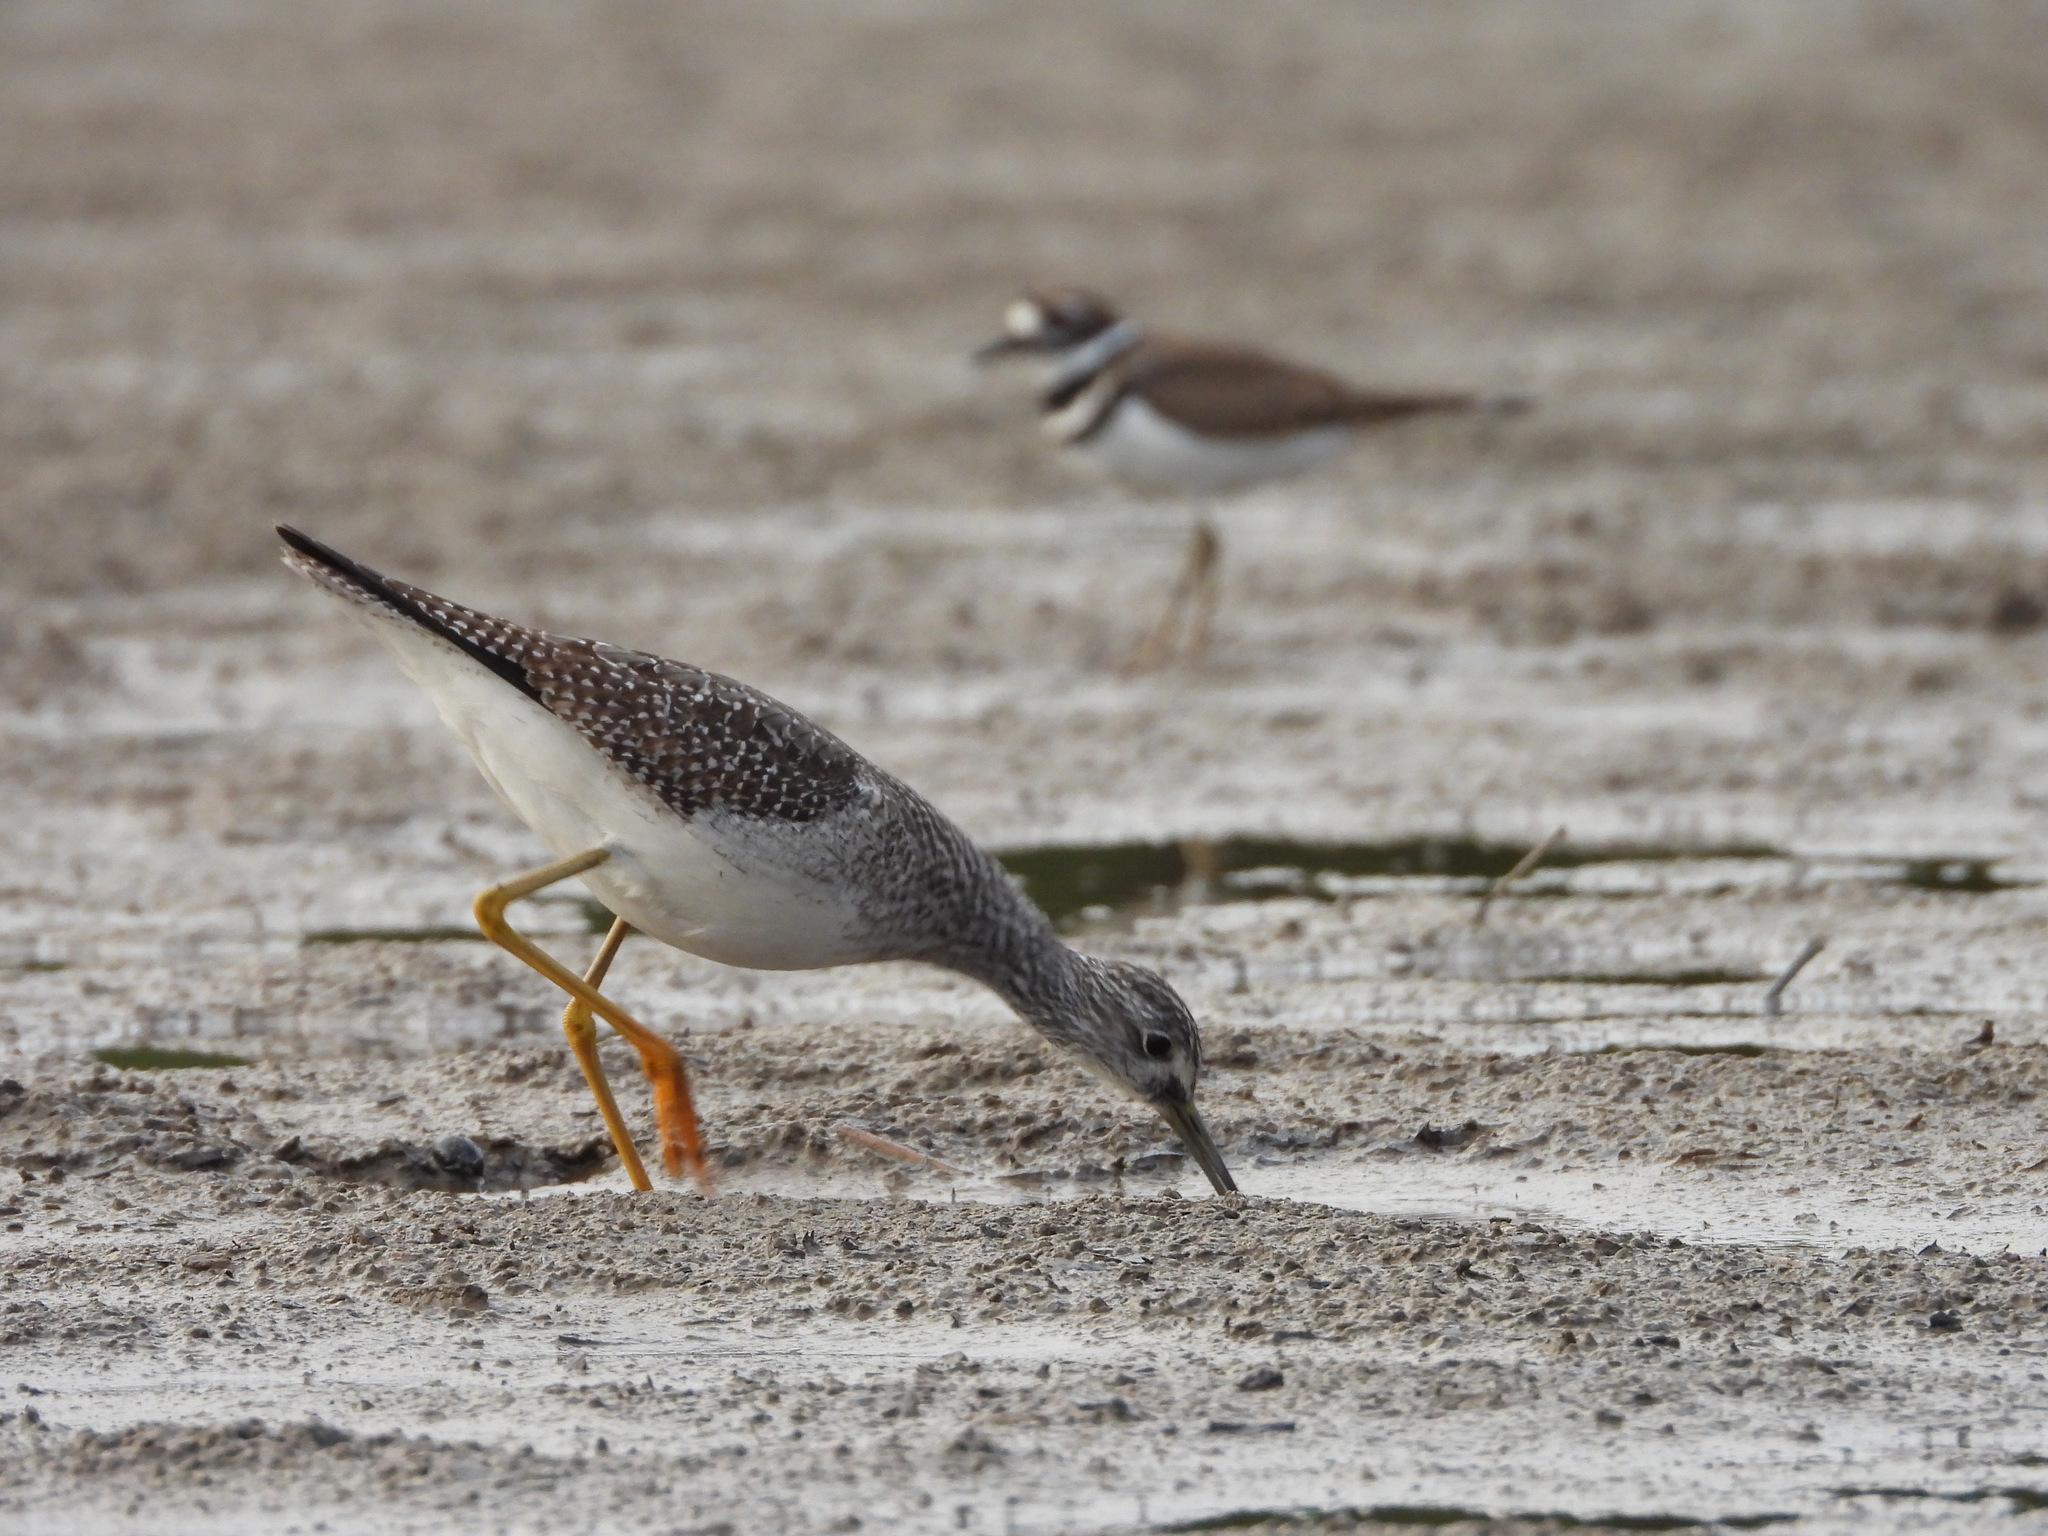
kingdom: Animalia
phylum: Chordata
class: Aves
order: Charadriiformes
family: Scolopacidae
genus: Tringa
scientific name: Tringa melanoleuca
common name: Greater yellowlegs
